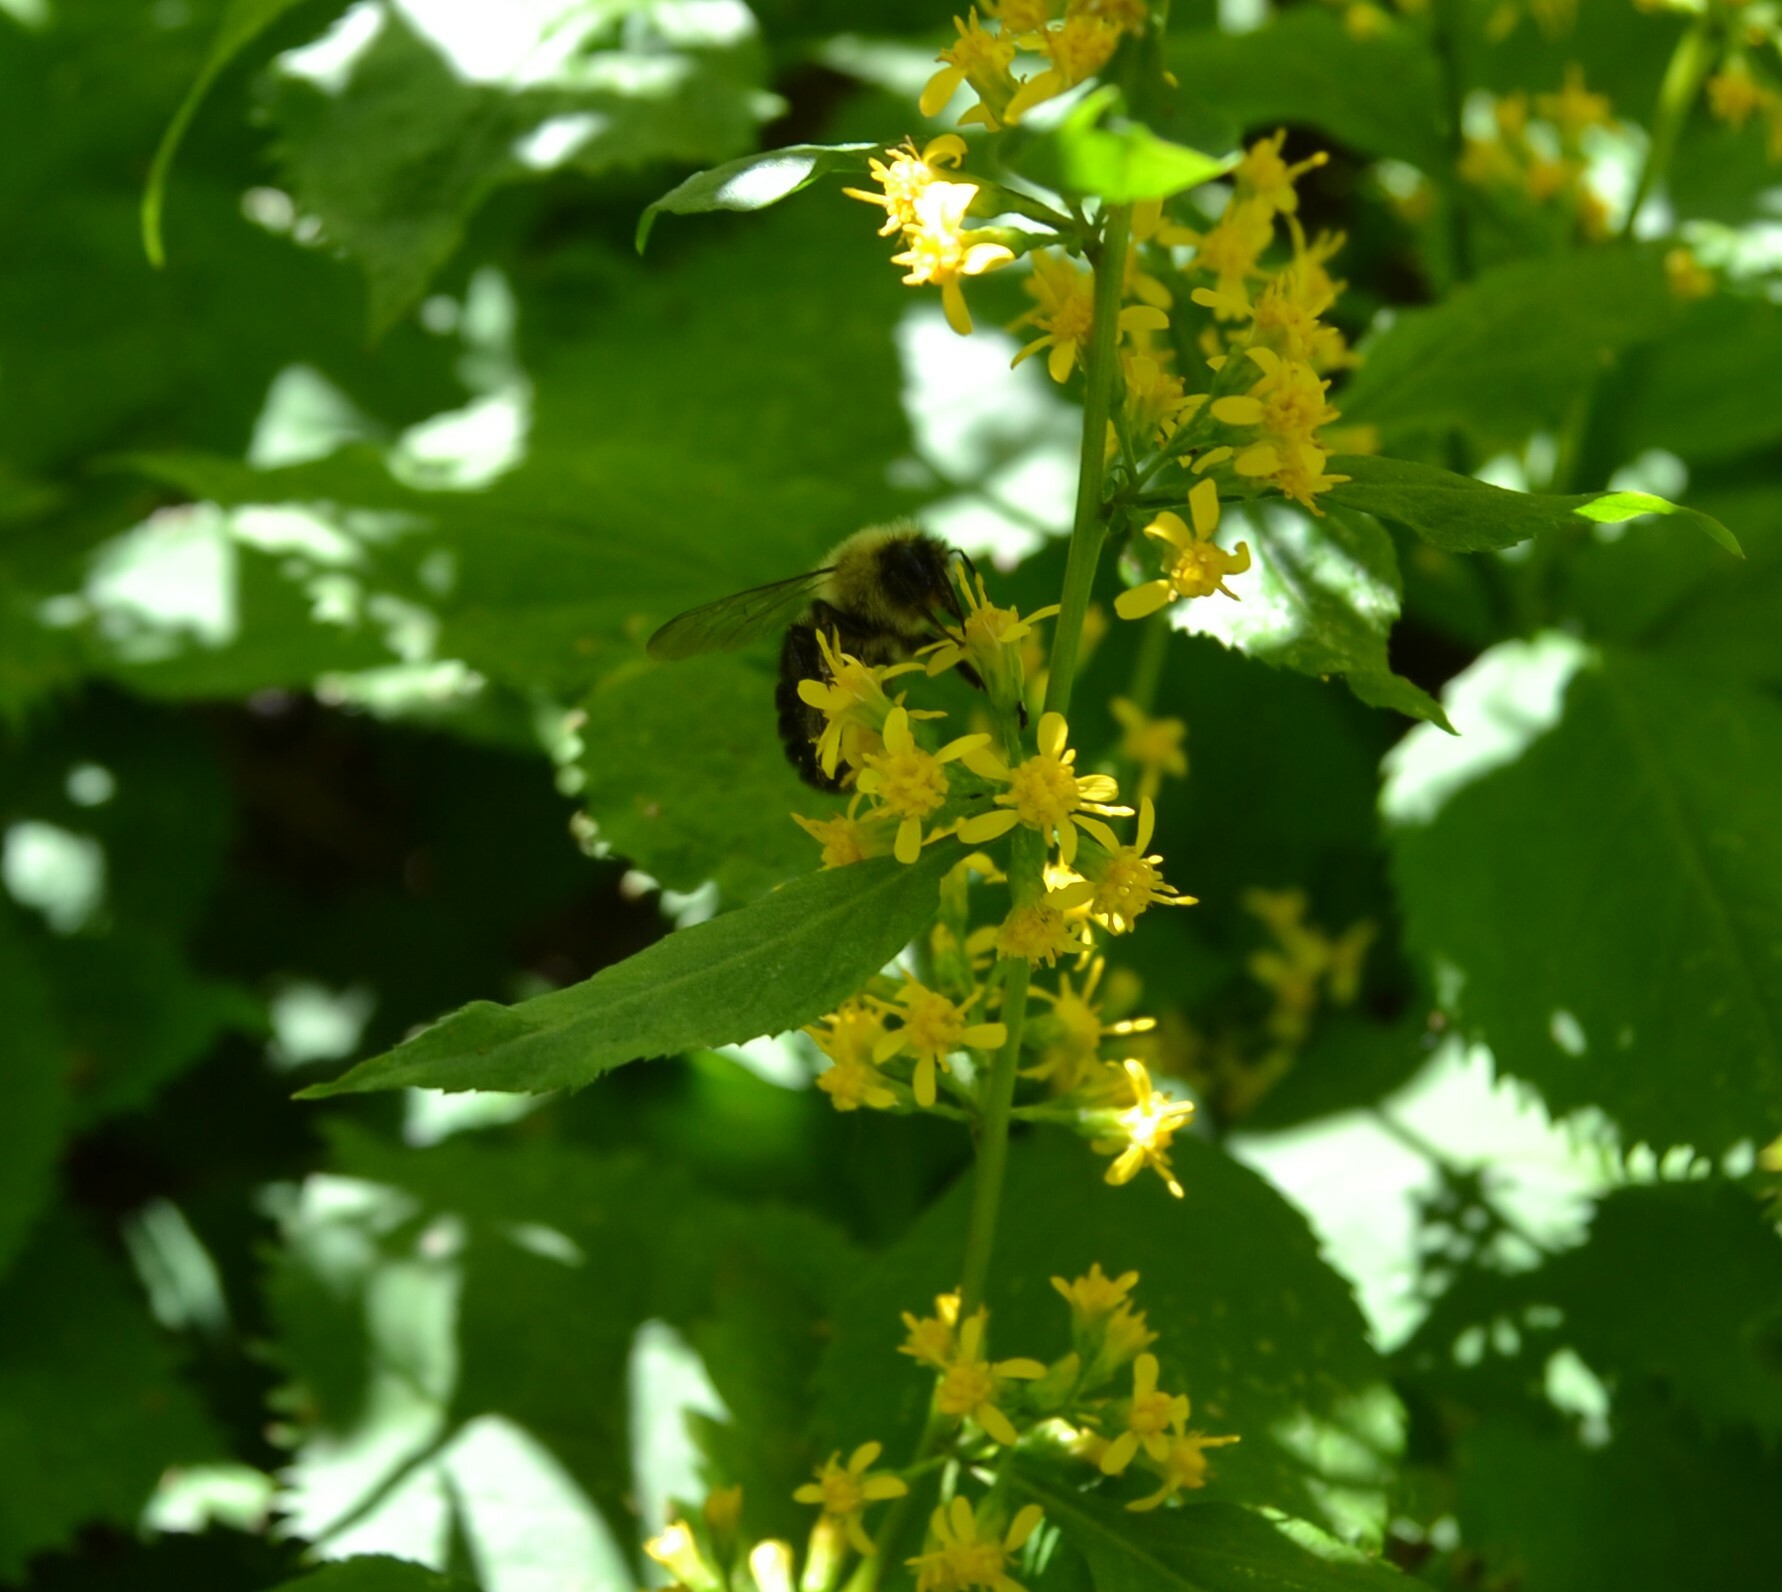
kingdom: Animalia
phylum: Arthropoda
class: Insecta
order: Hymenoptera
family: Apidae
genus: Bombus
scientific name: Bombus impatiens
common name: Common eastern bumble bee
